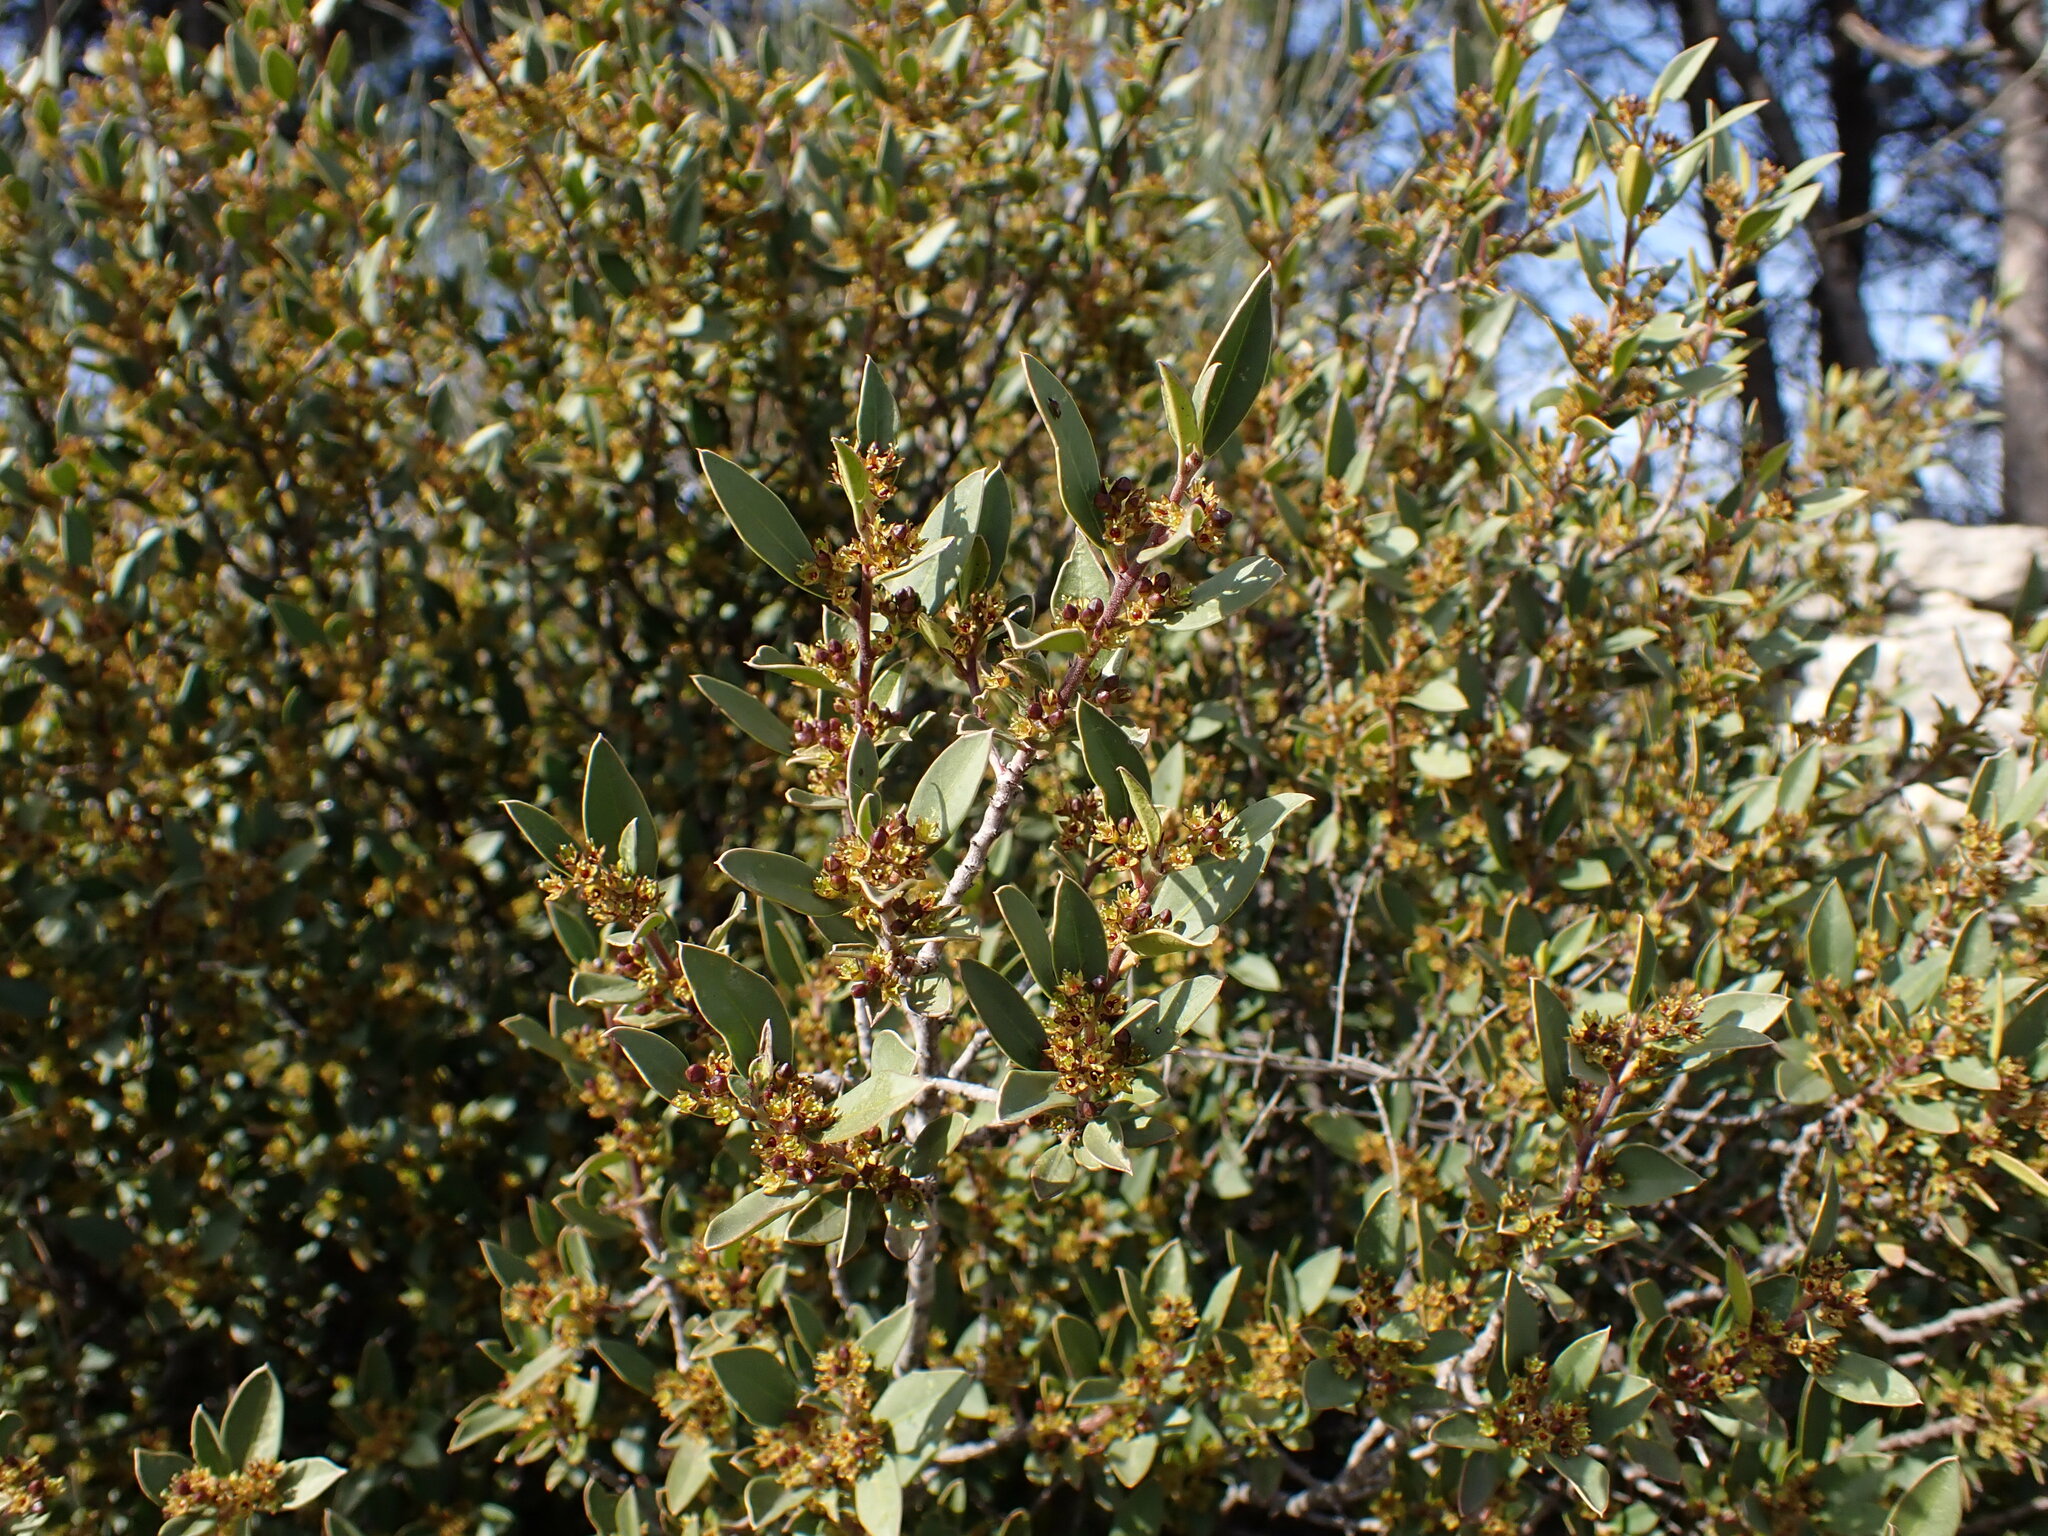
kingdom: Plantae
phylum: Tracheophyta
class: Magnoliopsida
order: Rosales
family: Rhamnaceae
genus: Rhamnus
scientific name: Rhamnus alaternus
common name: Mediterranean buckthorn
